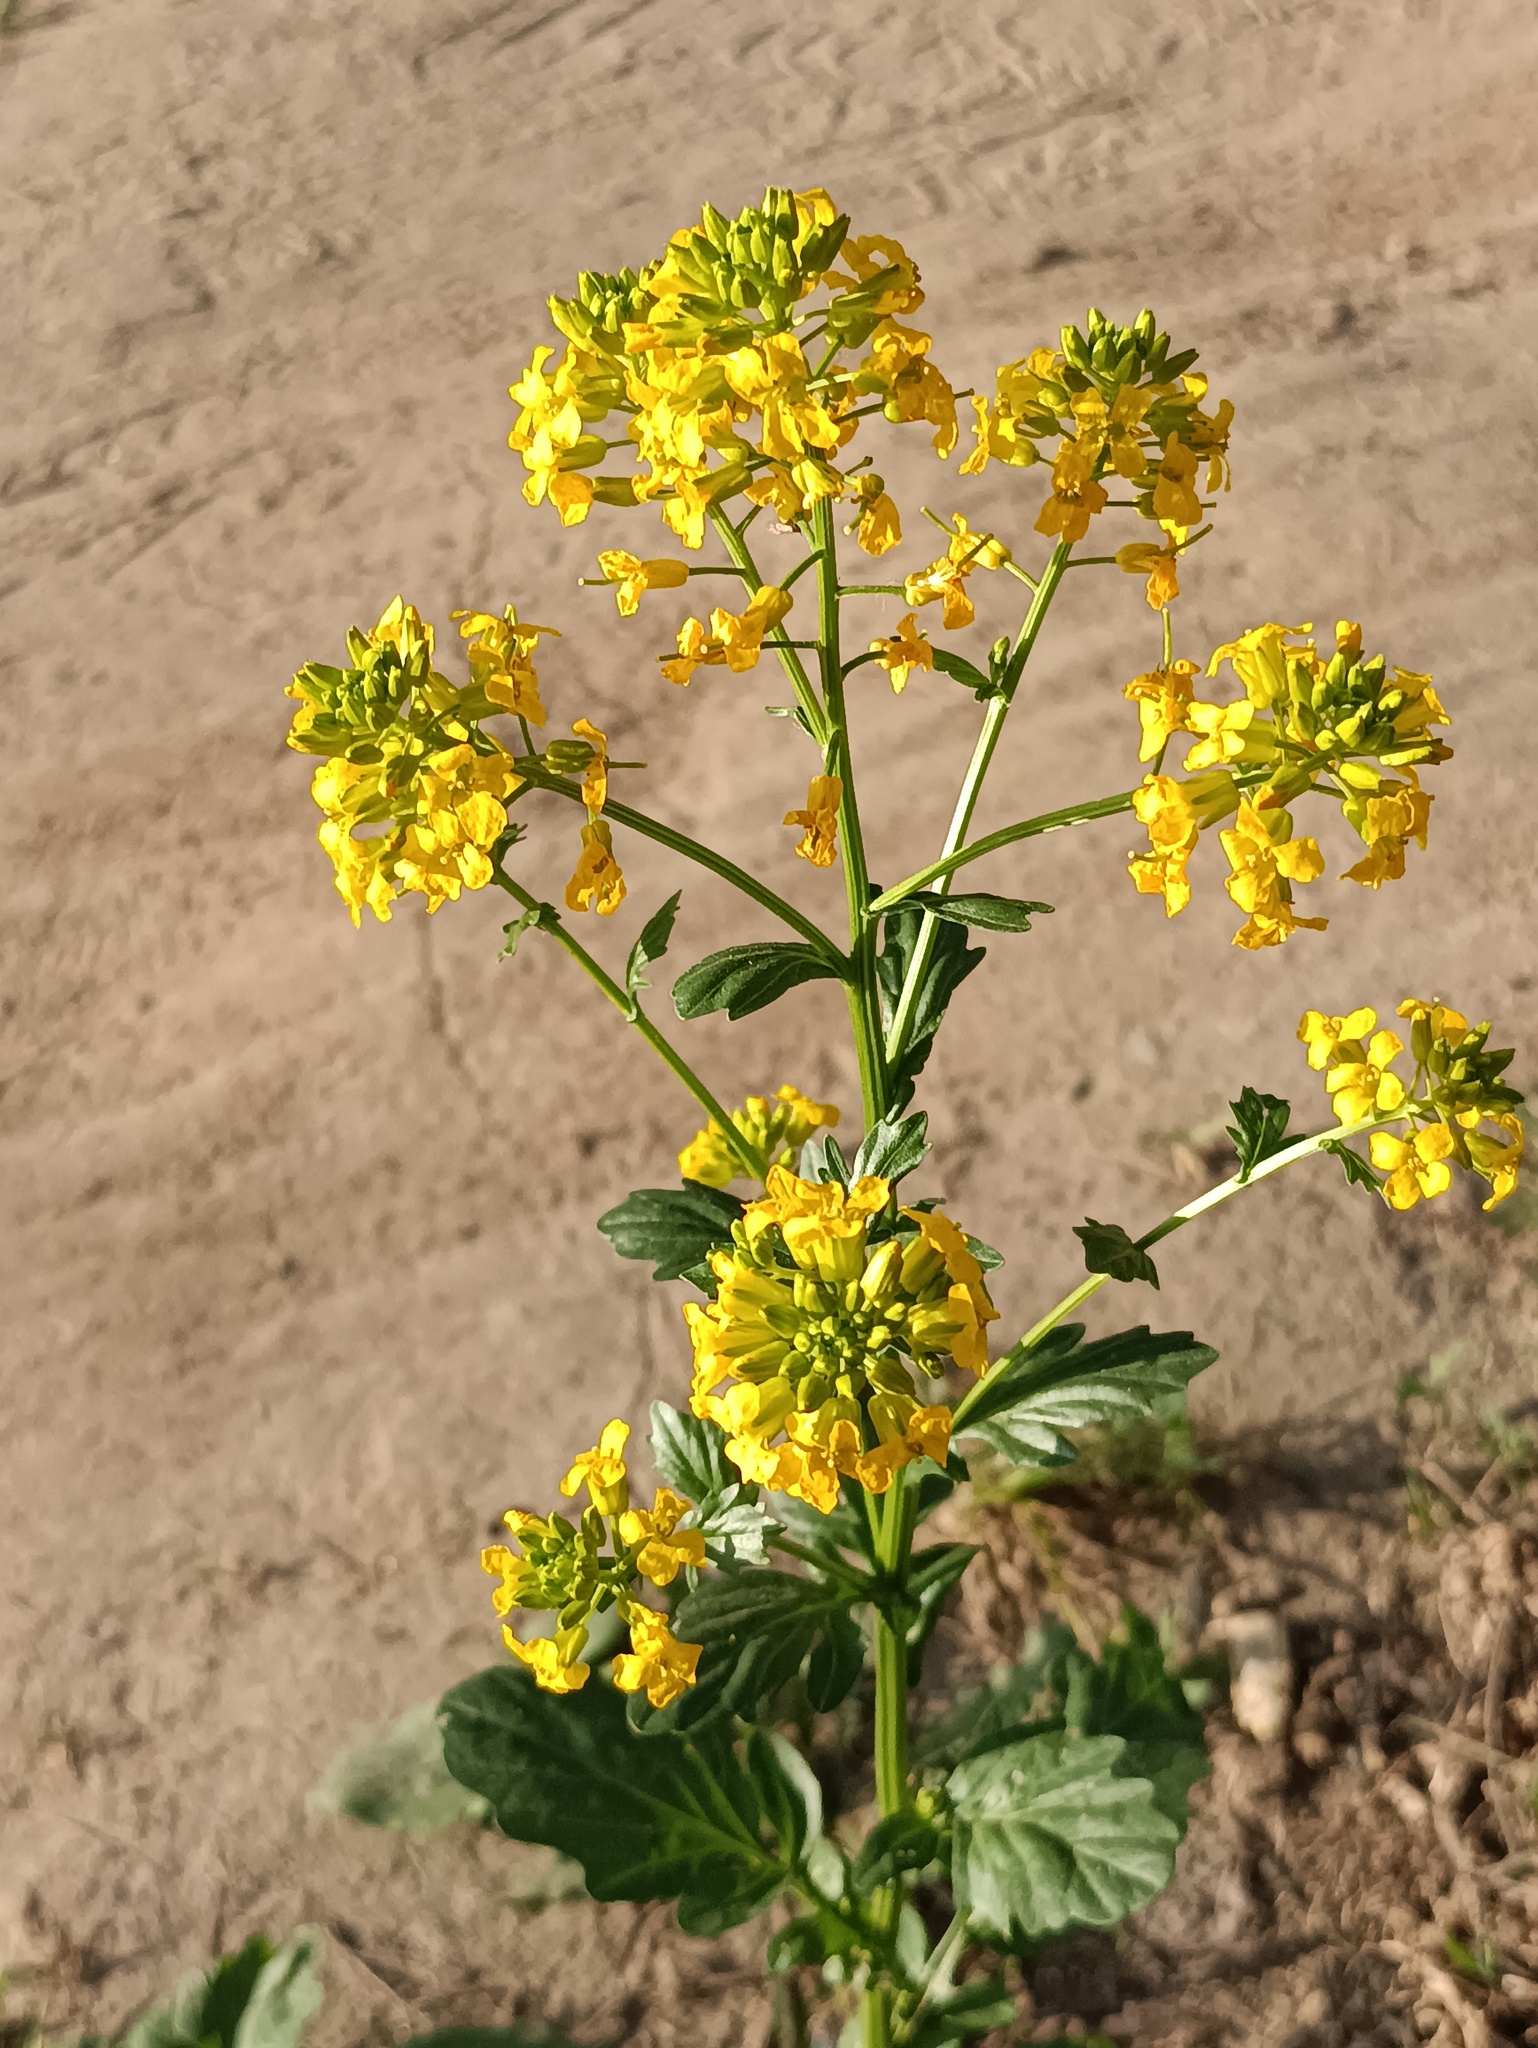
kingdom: Plantae
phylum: Tracheophyta
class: Magnoliopsida
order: Brassicales
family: Brassicaceae
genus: Barbarea
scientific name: Barbarea vulgaris
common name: Cressy-greens
